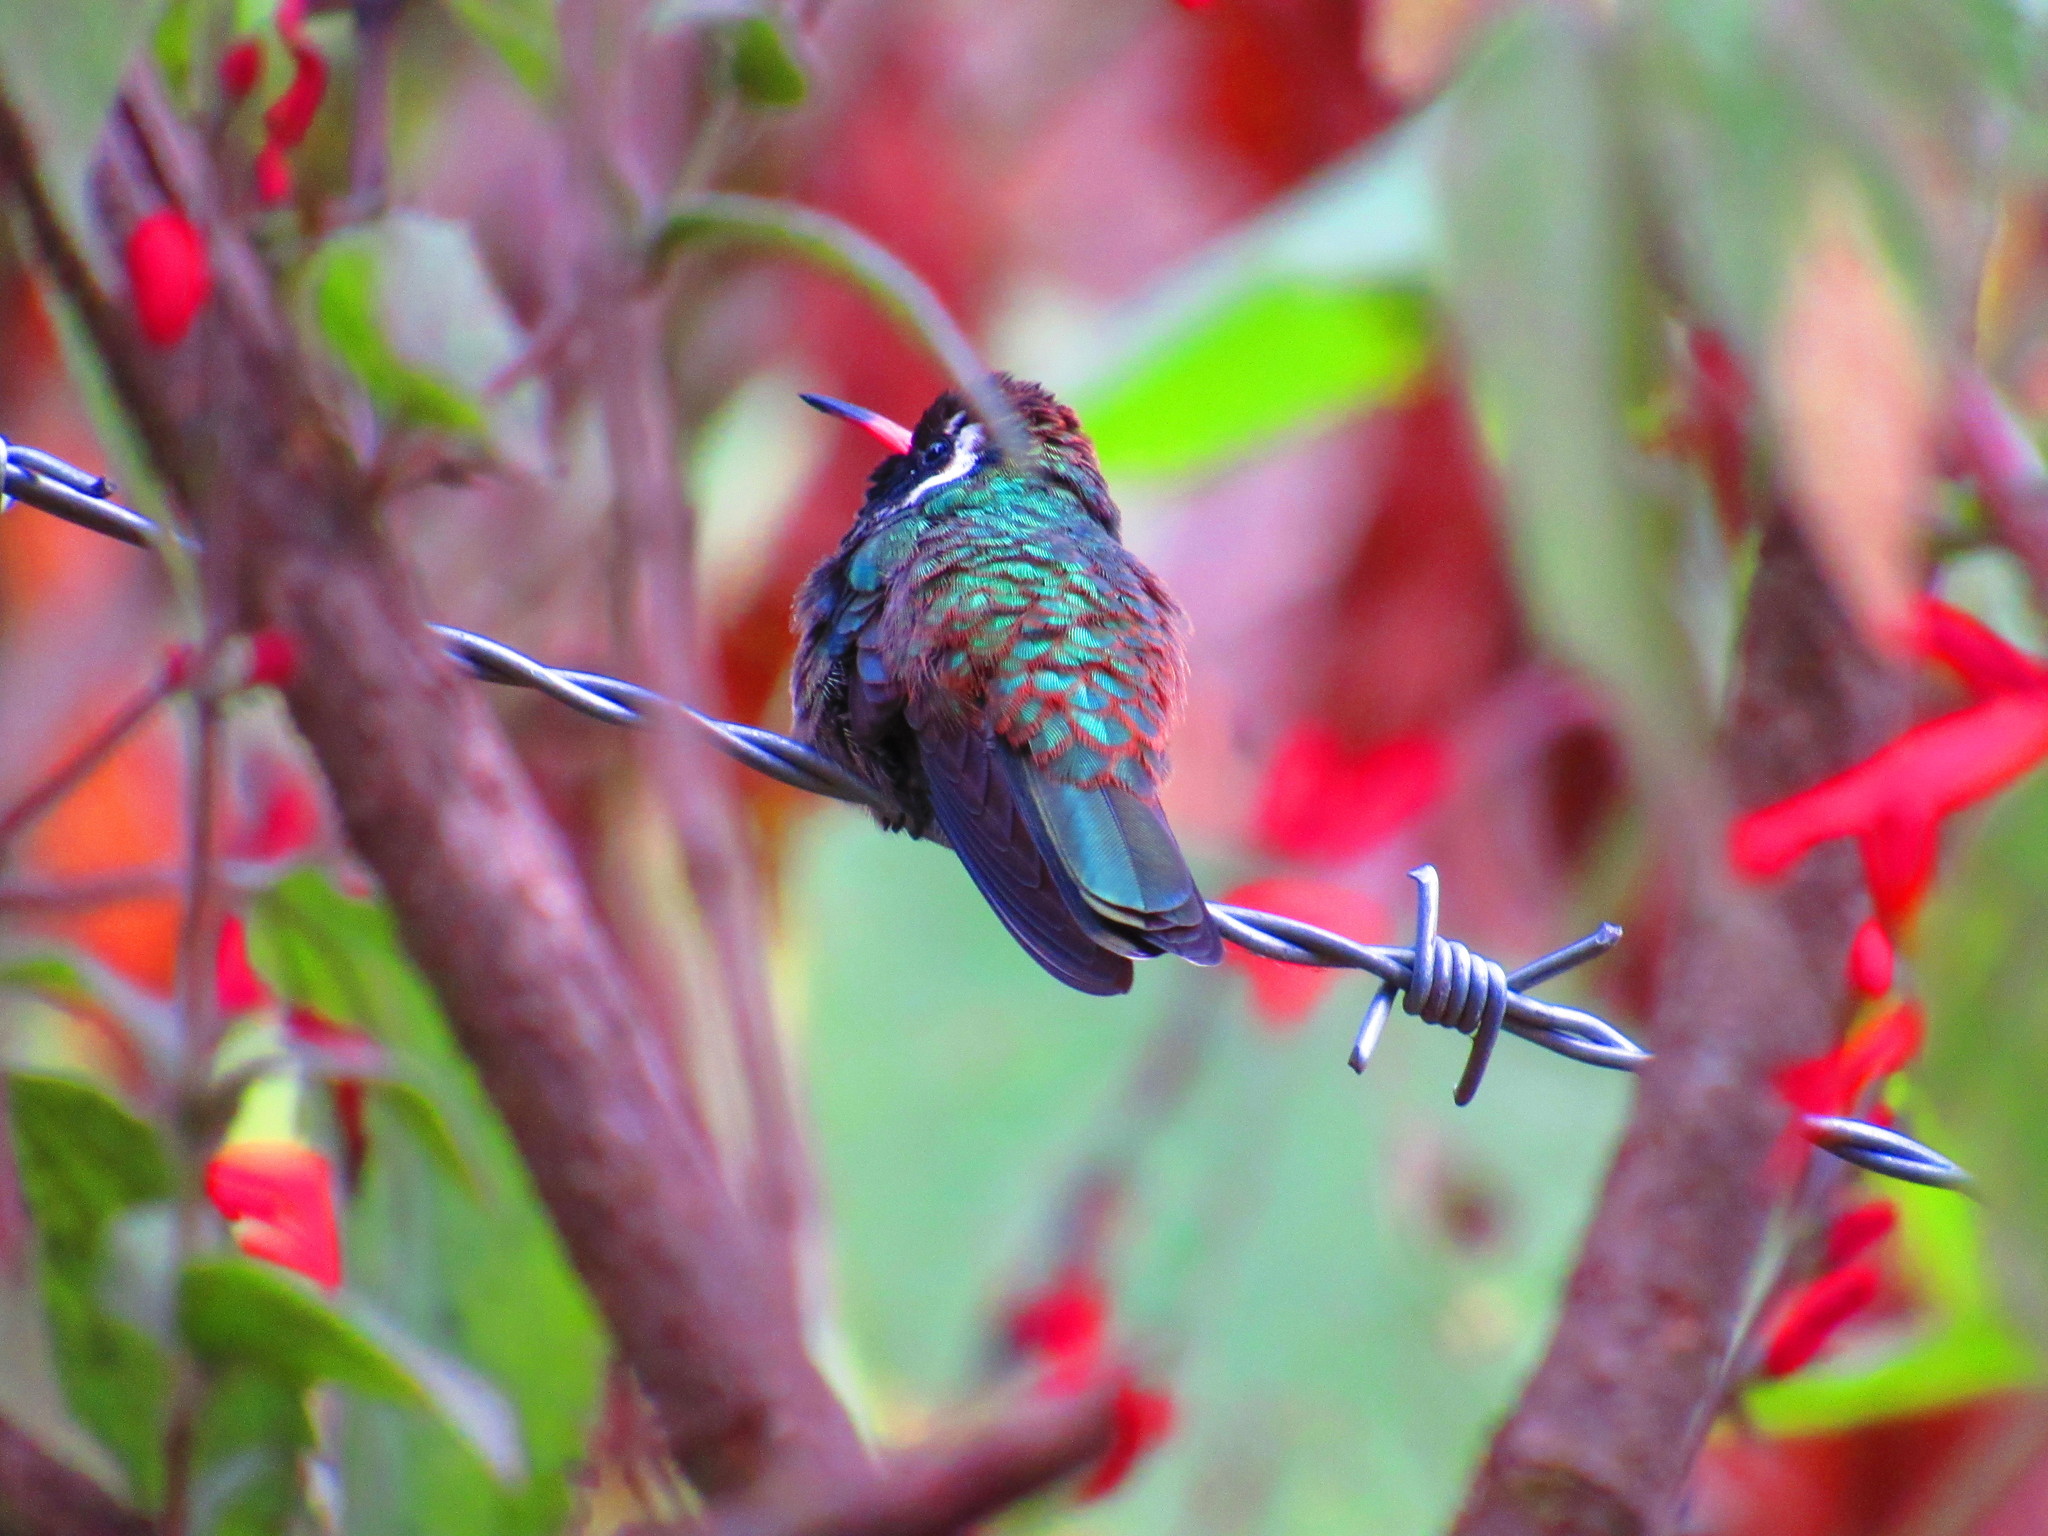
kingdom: Animalia
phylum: Chordata
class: Aves
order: Apodiformes
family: Trochilidae
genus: Basilinna
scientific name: Basilinna leucotis
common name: White-eared hummingbird
